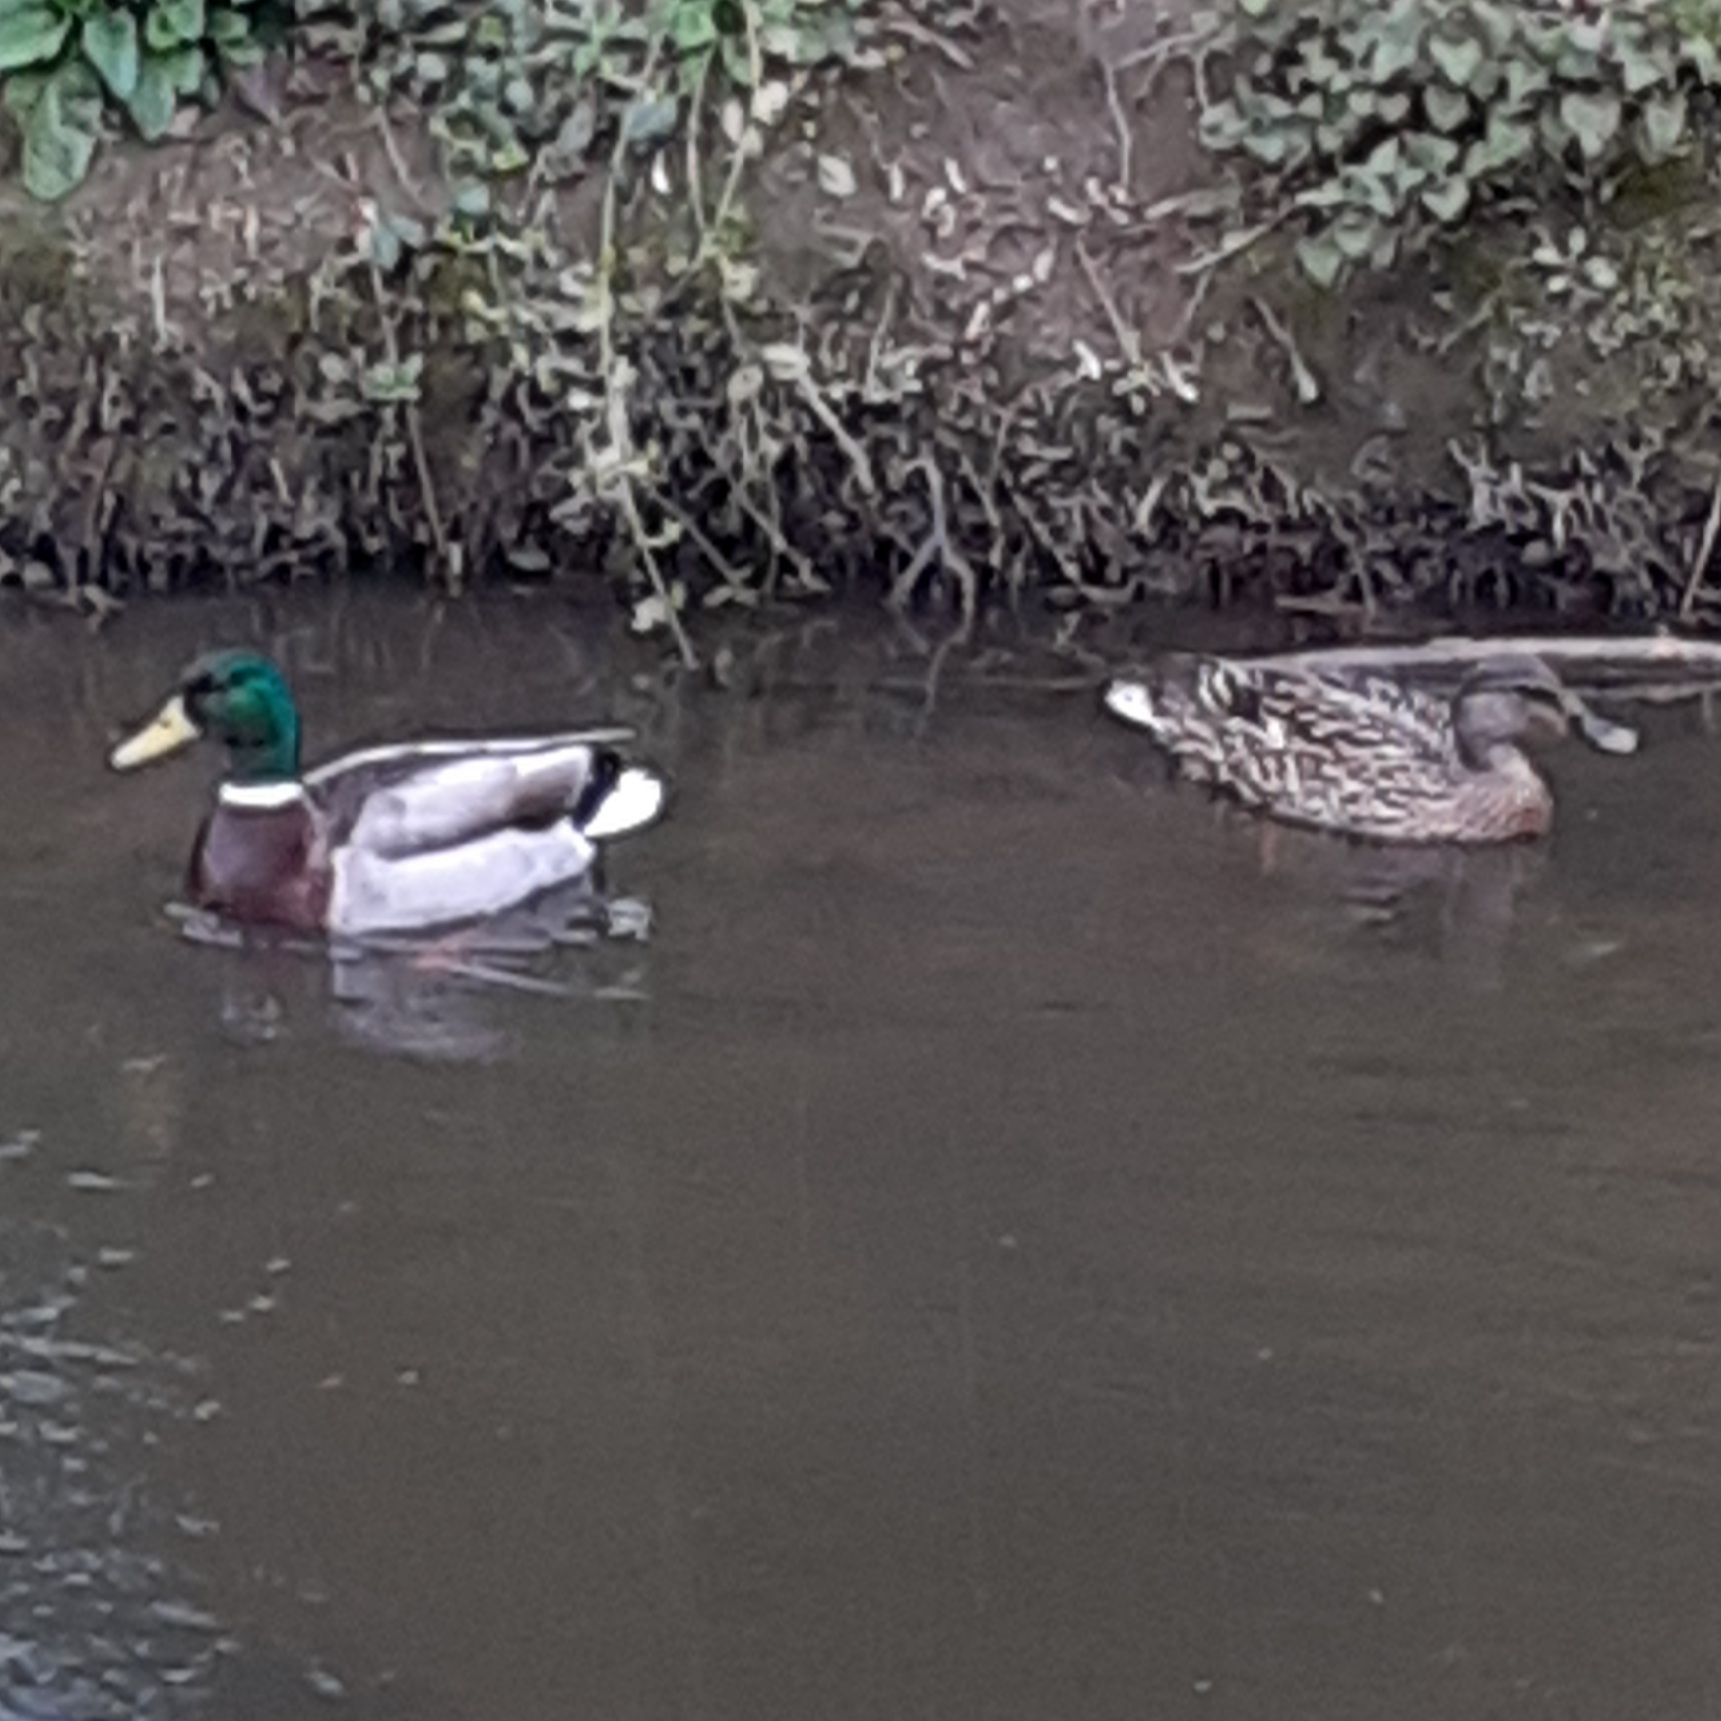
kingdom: Animalia
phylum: Chordata
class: Aves
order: Anseriformes
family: Anatidae
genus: Anas
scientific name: Anas platyrhynchos
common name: Mallard
